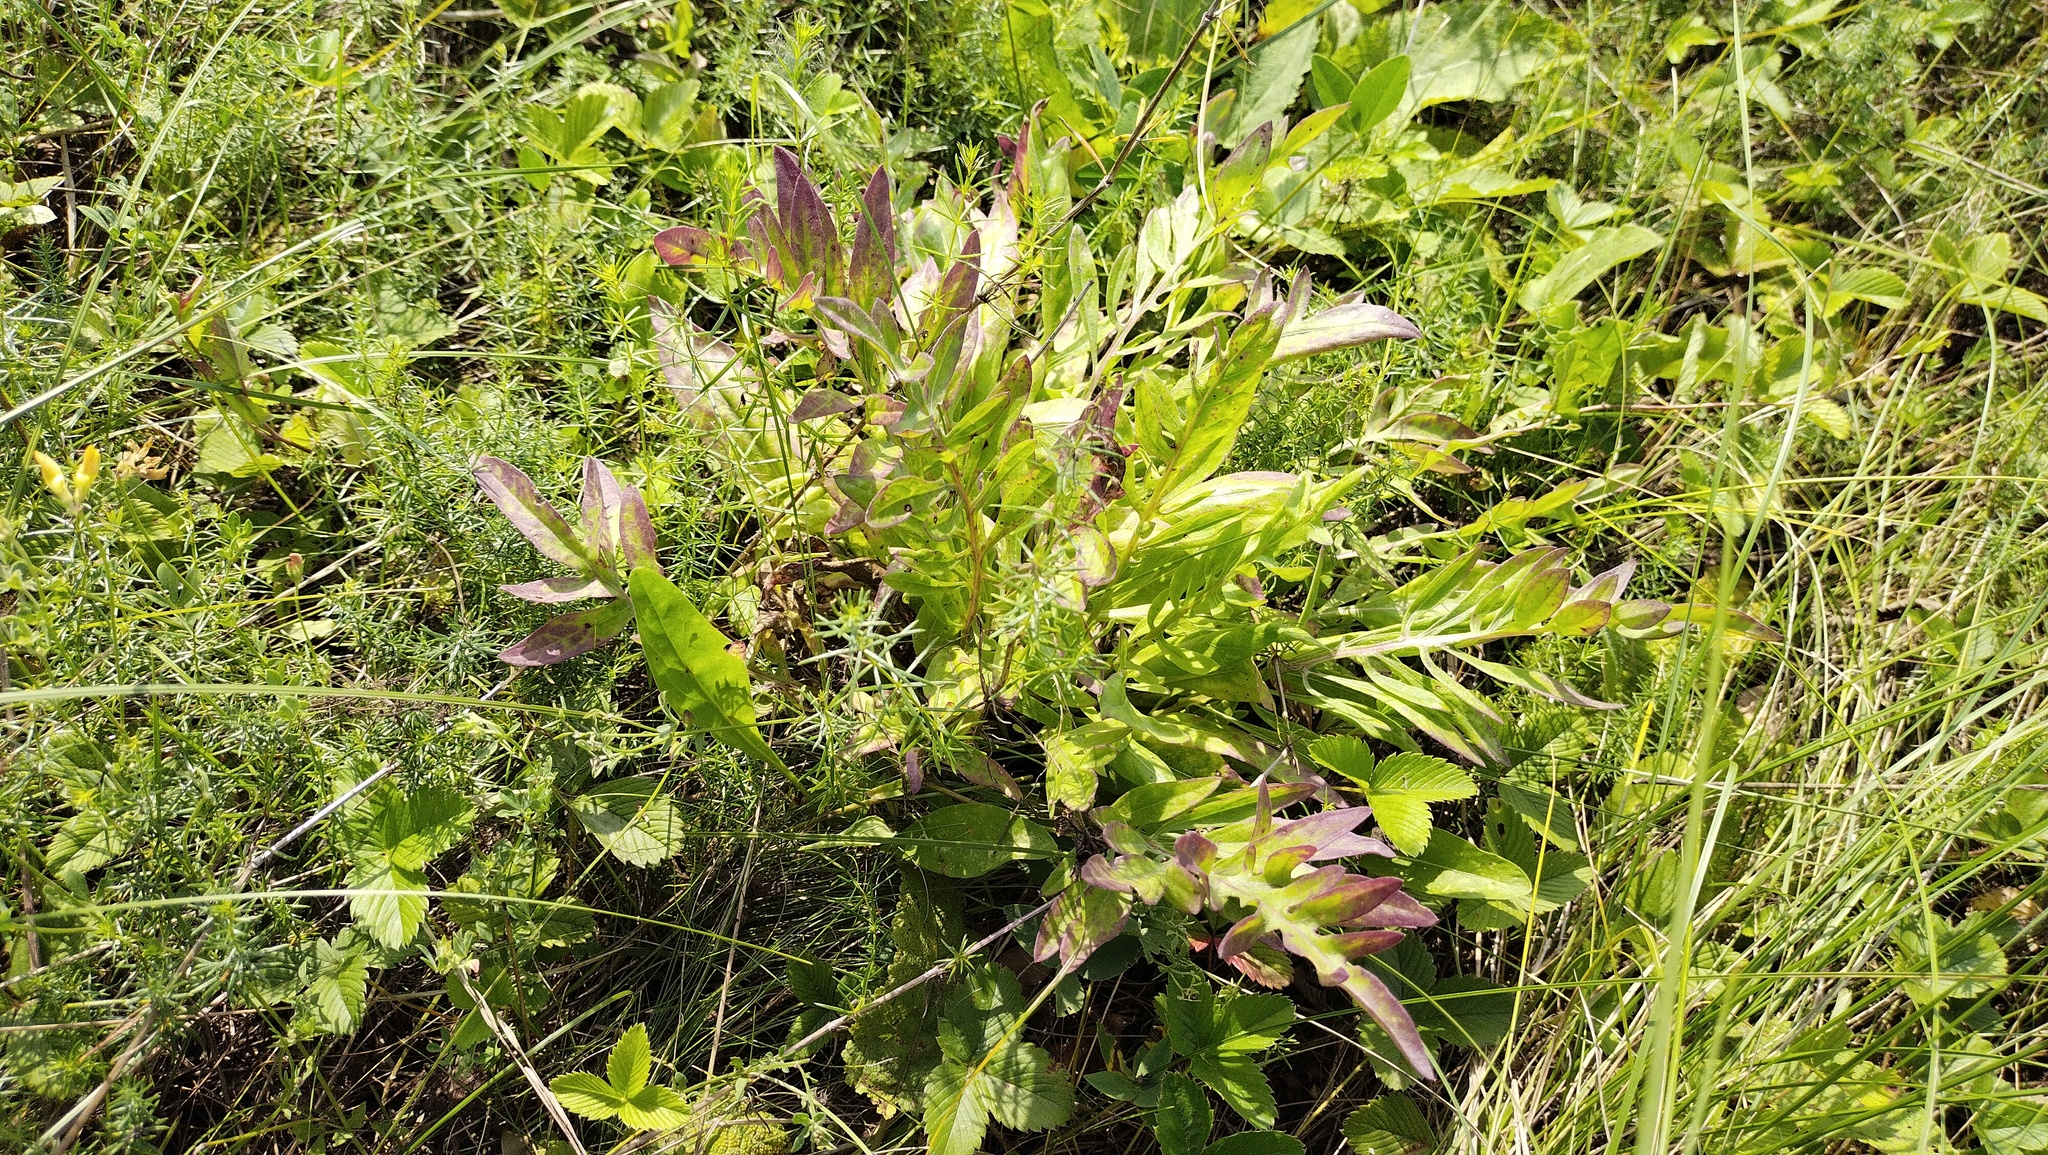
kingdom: Plantae
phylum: Tracheophyta
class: Magnoliopsida
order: Asterales
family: Asteraceae
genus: Centaurea
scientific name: Centaurea scabiosa
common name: Greater knapweed
